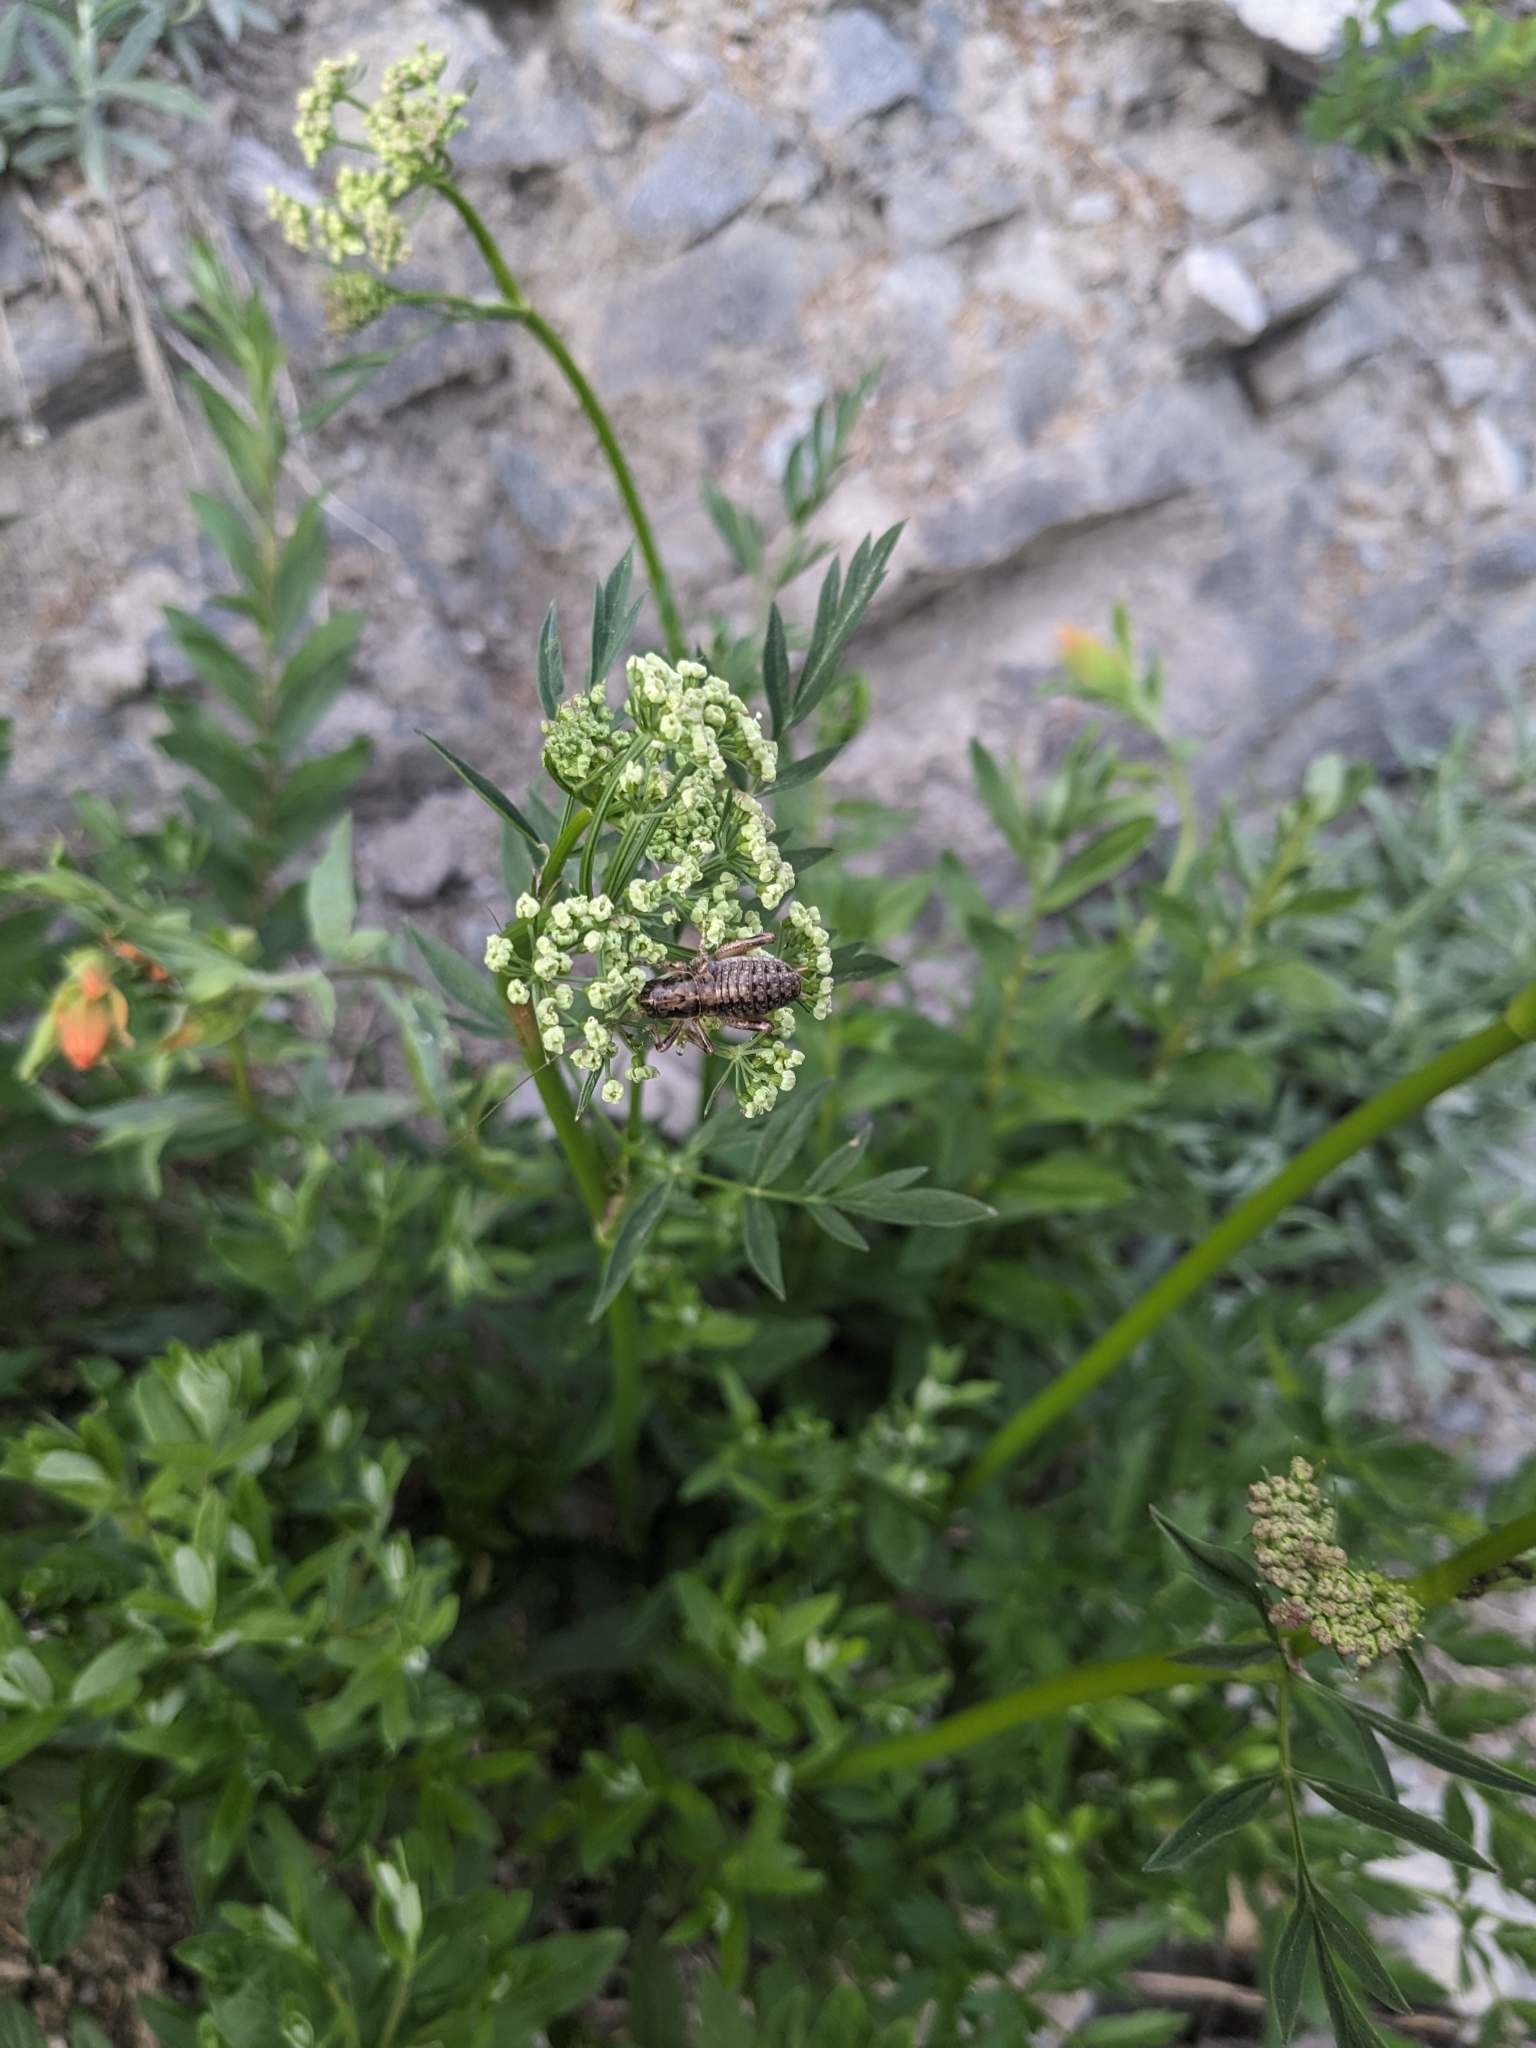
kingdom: Animalia
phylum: Arthropoda
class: Insecta
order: Orthoptera
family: Prophalangopsidae
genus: Cyphoderris
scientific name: Cyphoderris monstrosa
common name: Great grig
